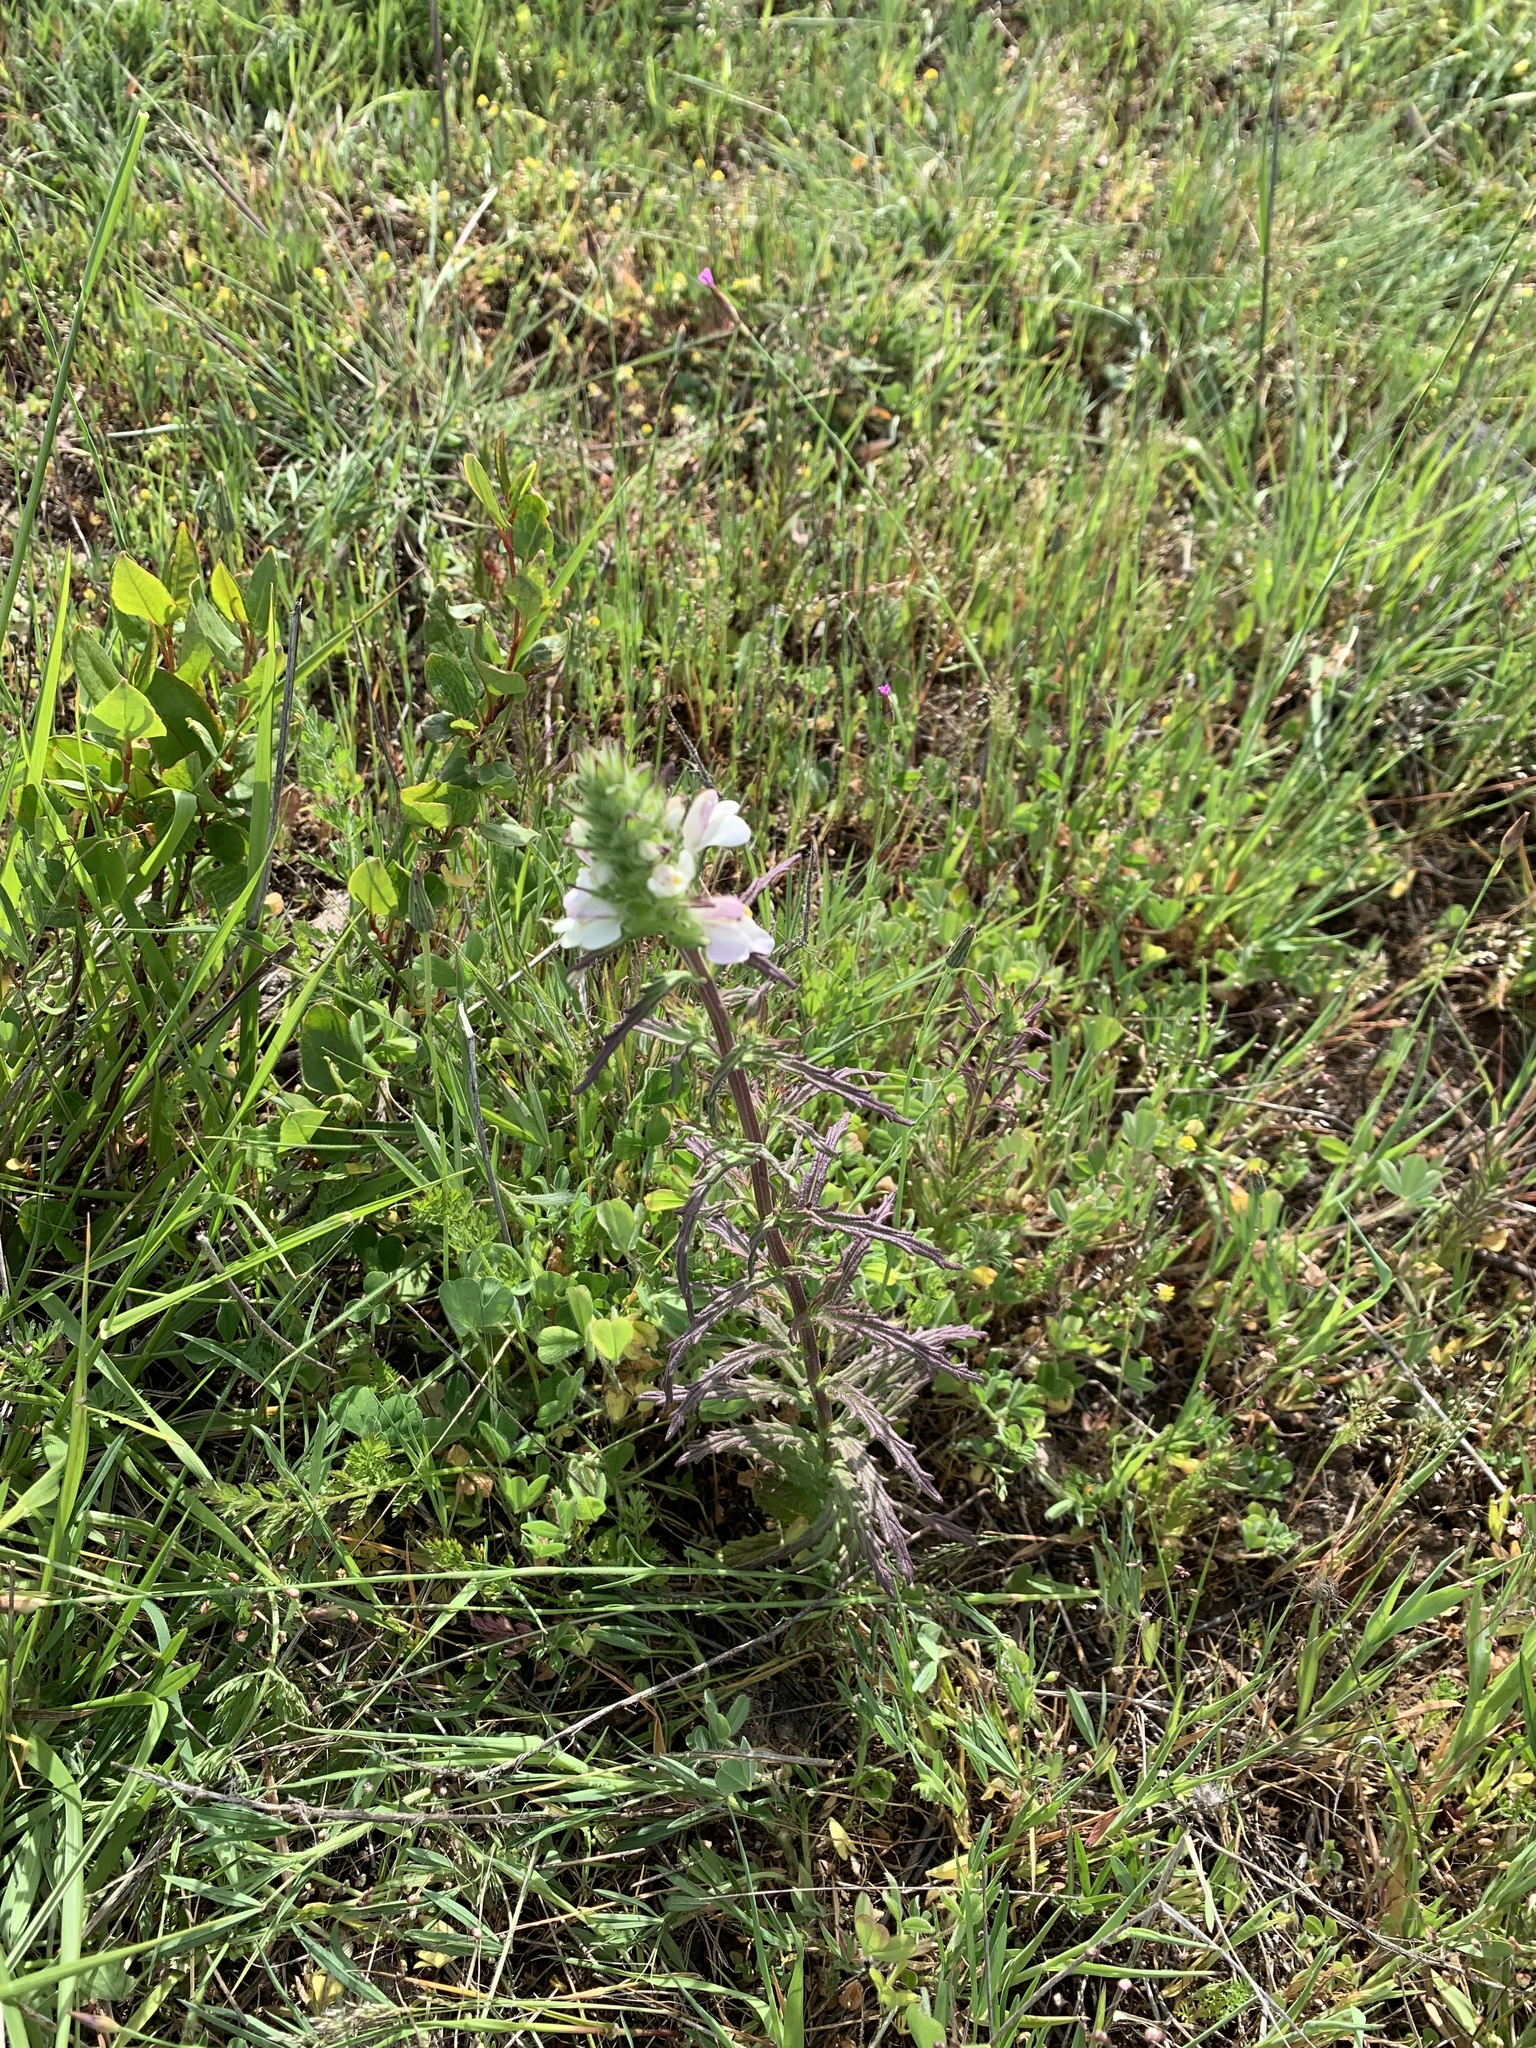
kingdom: Plantae
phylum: Tracheophyta
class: Magnoliopsida
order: Lamiales
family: Orobanchaceae
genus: Bellardia
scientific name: Bellardia trixago
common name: Mediterranean lineseed
